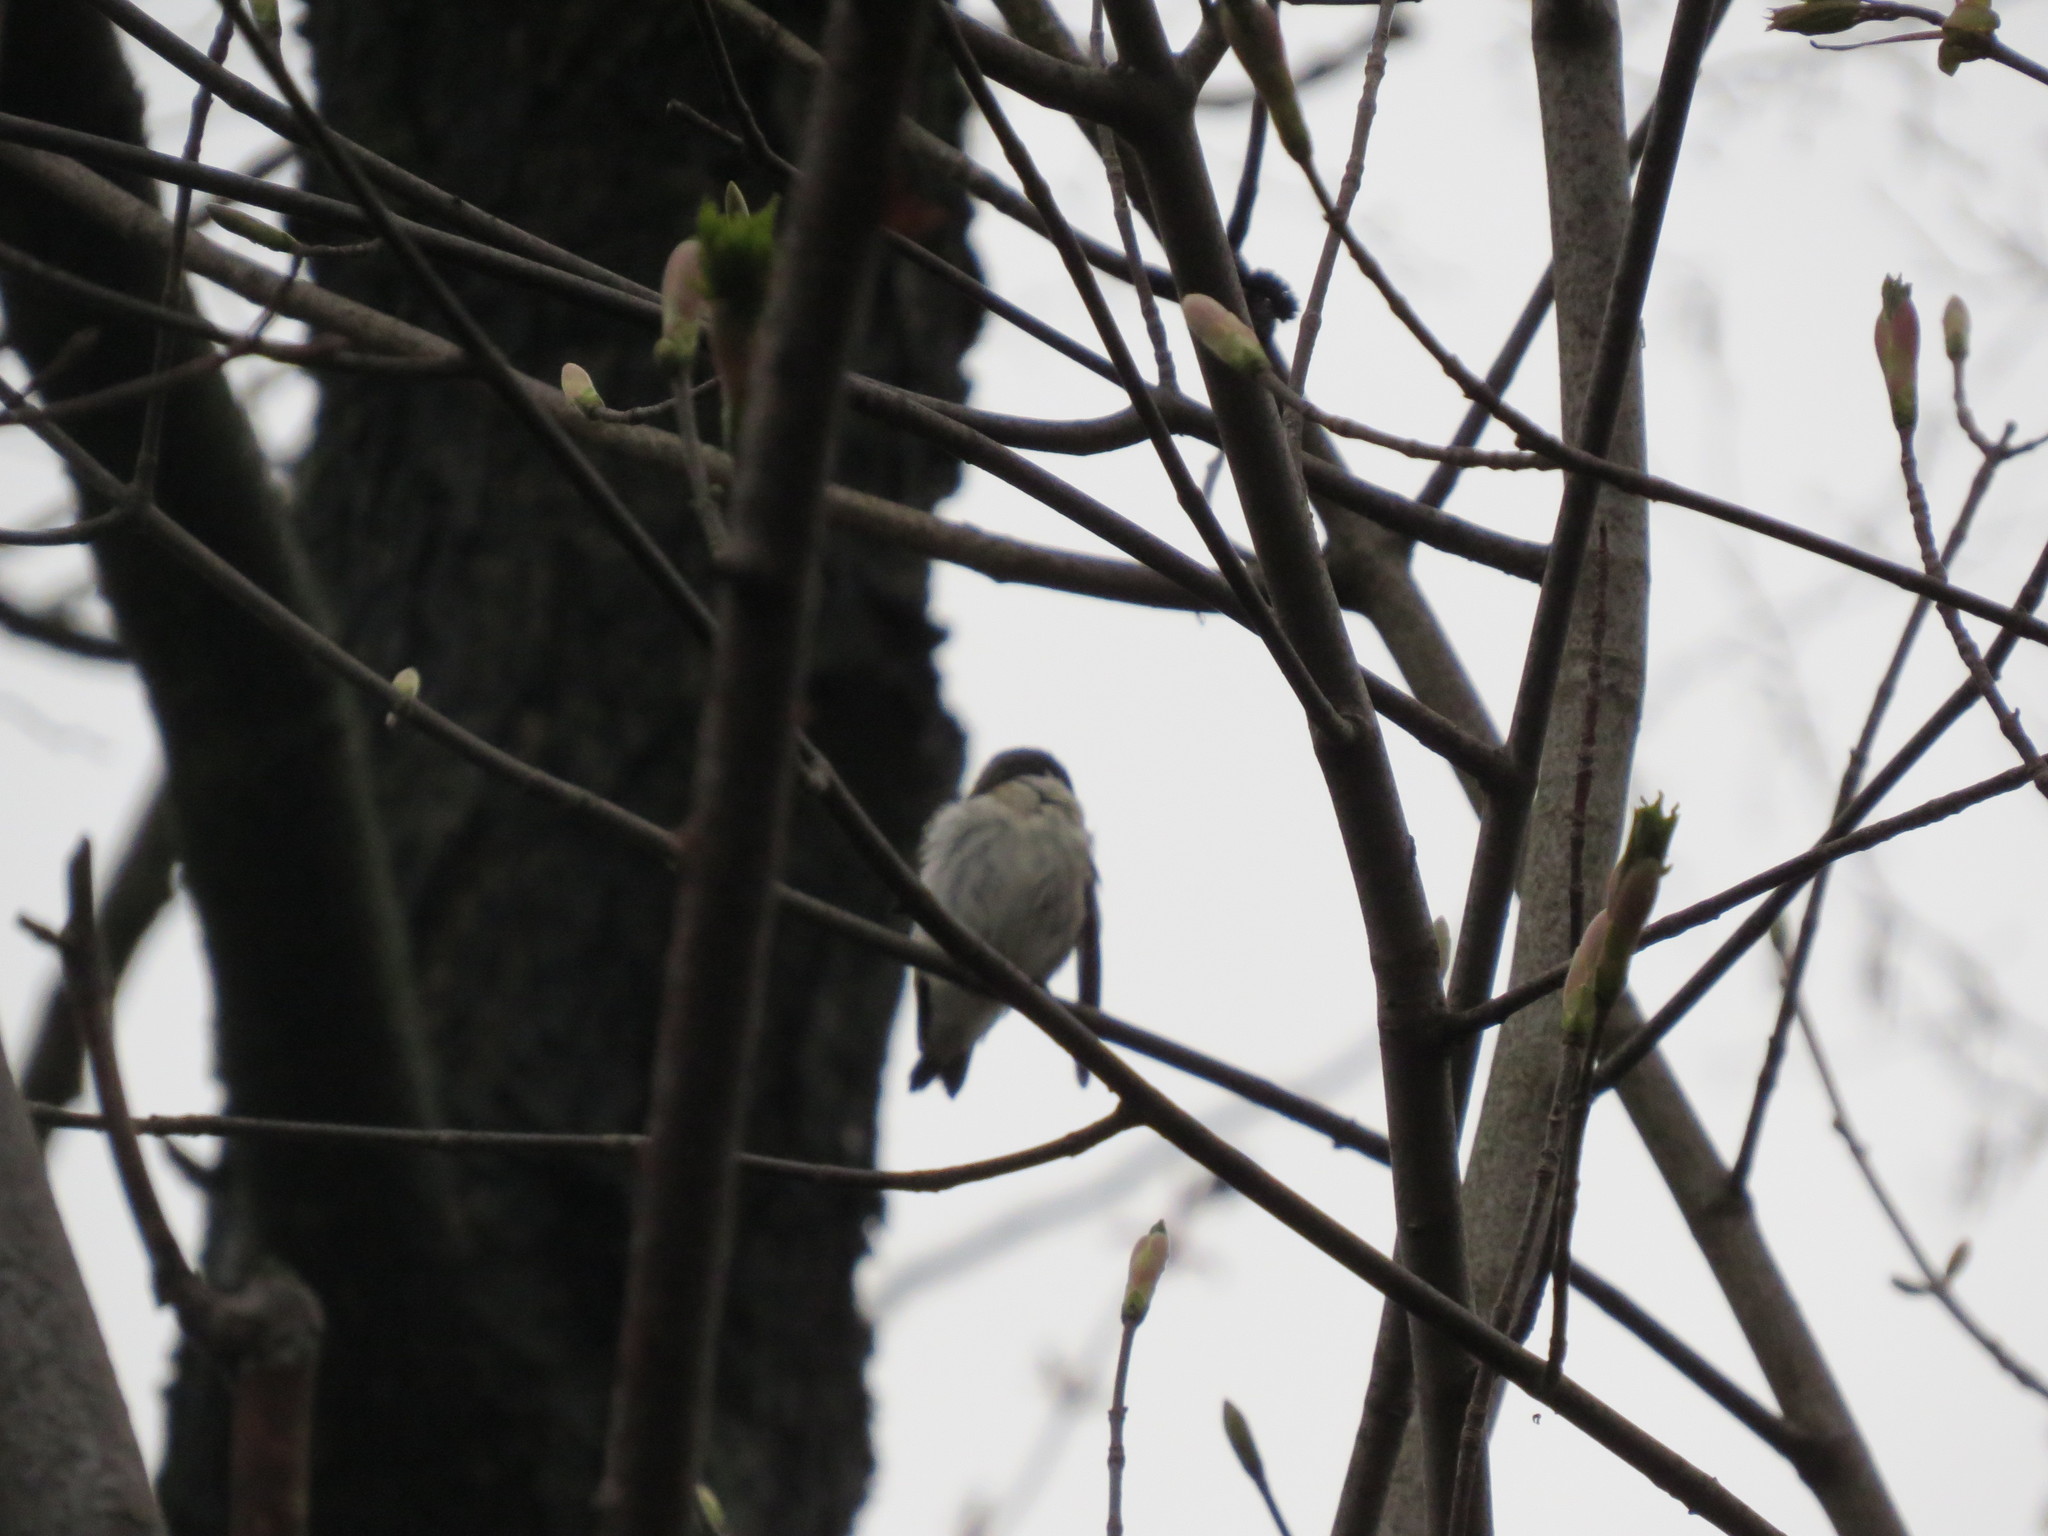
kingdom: Animalia
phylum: Chordata
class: Aves
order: Passeriformes
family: Muscicapidae
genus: Ficedula
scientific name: Ficedula hypoleuca
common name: European pied flycatcher
